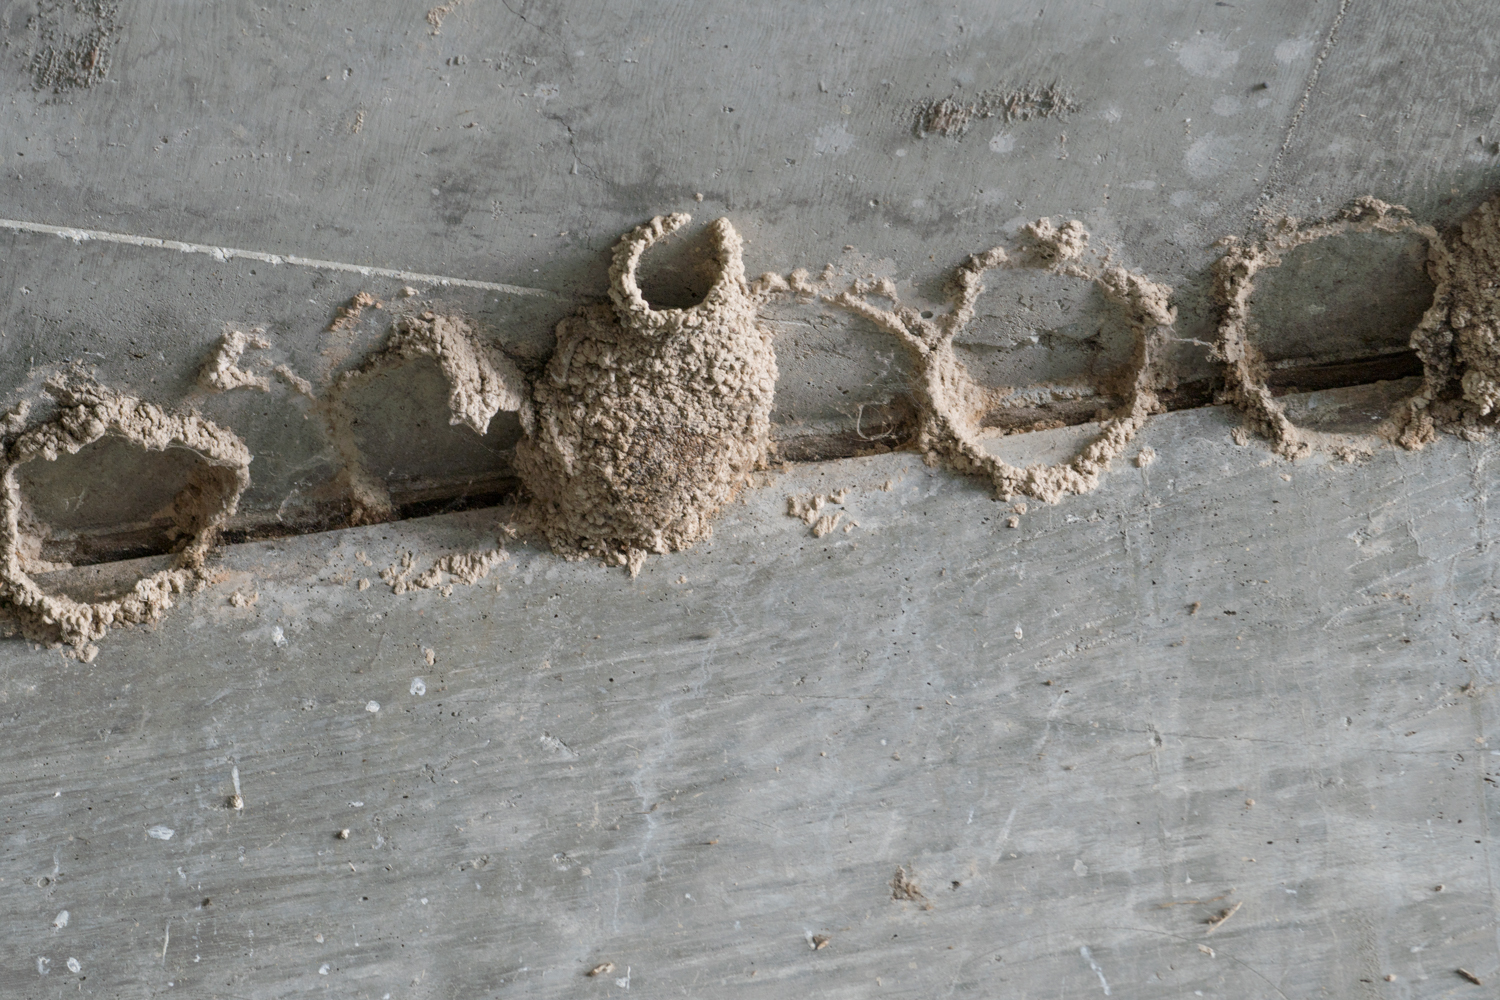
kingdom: Animalia
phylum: Chordata
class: Aves
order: Passeriformes
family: Hirundinidae
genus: Petrochelidon
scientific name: Petrochelidon pyrrhonota
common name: American cliff swallow
